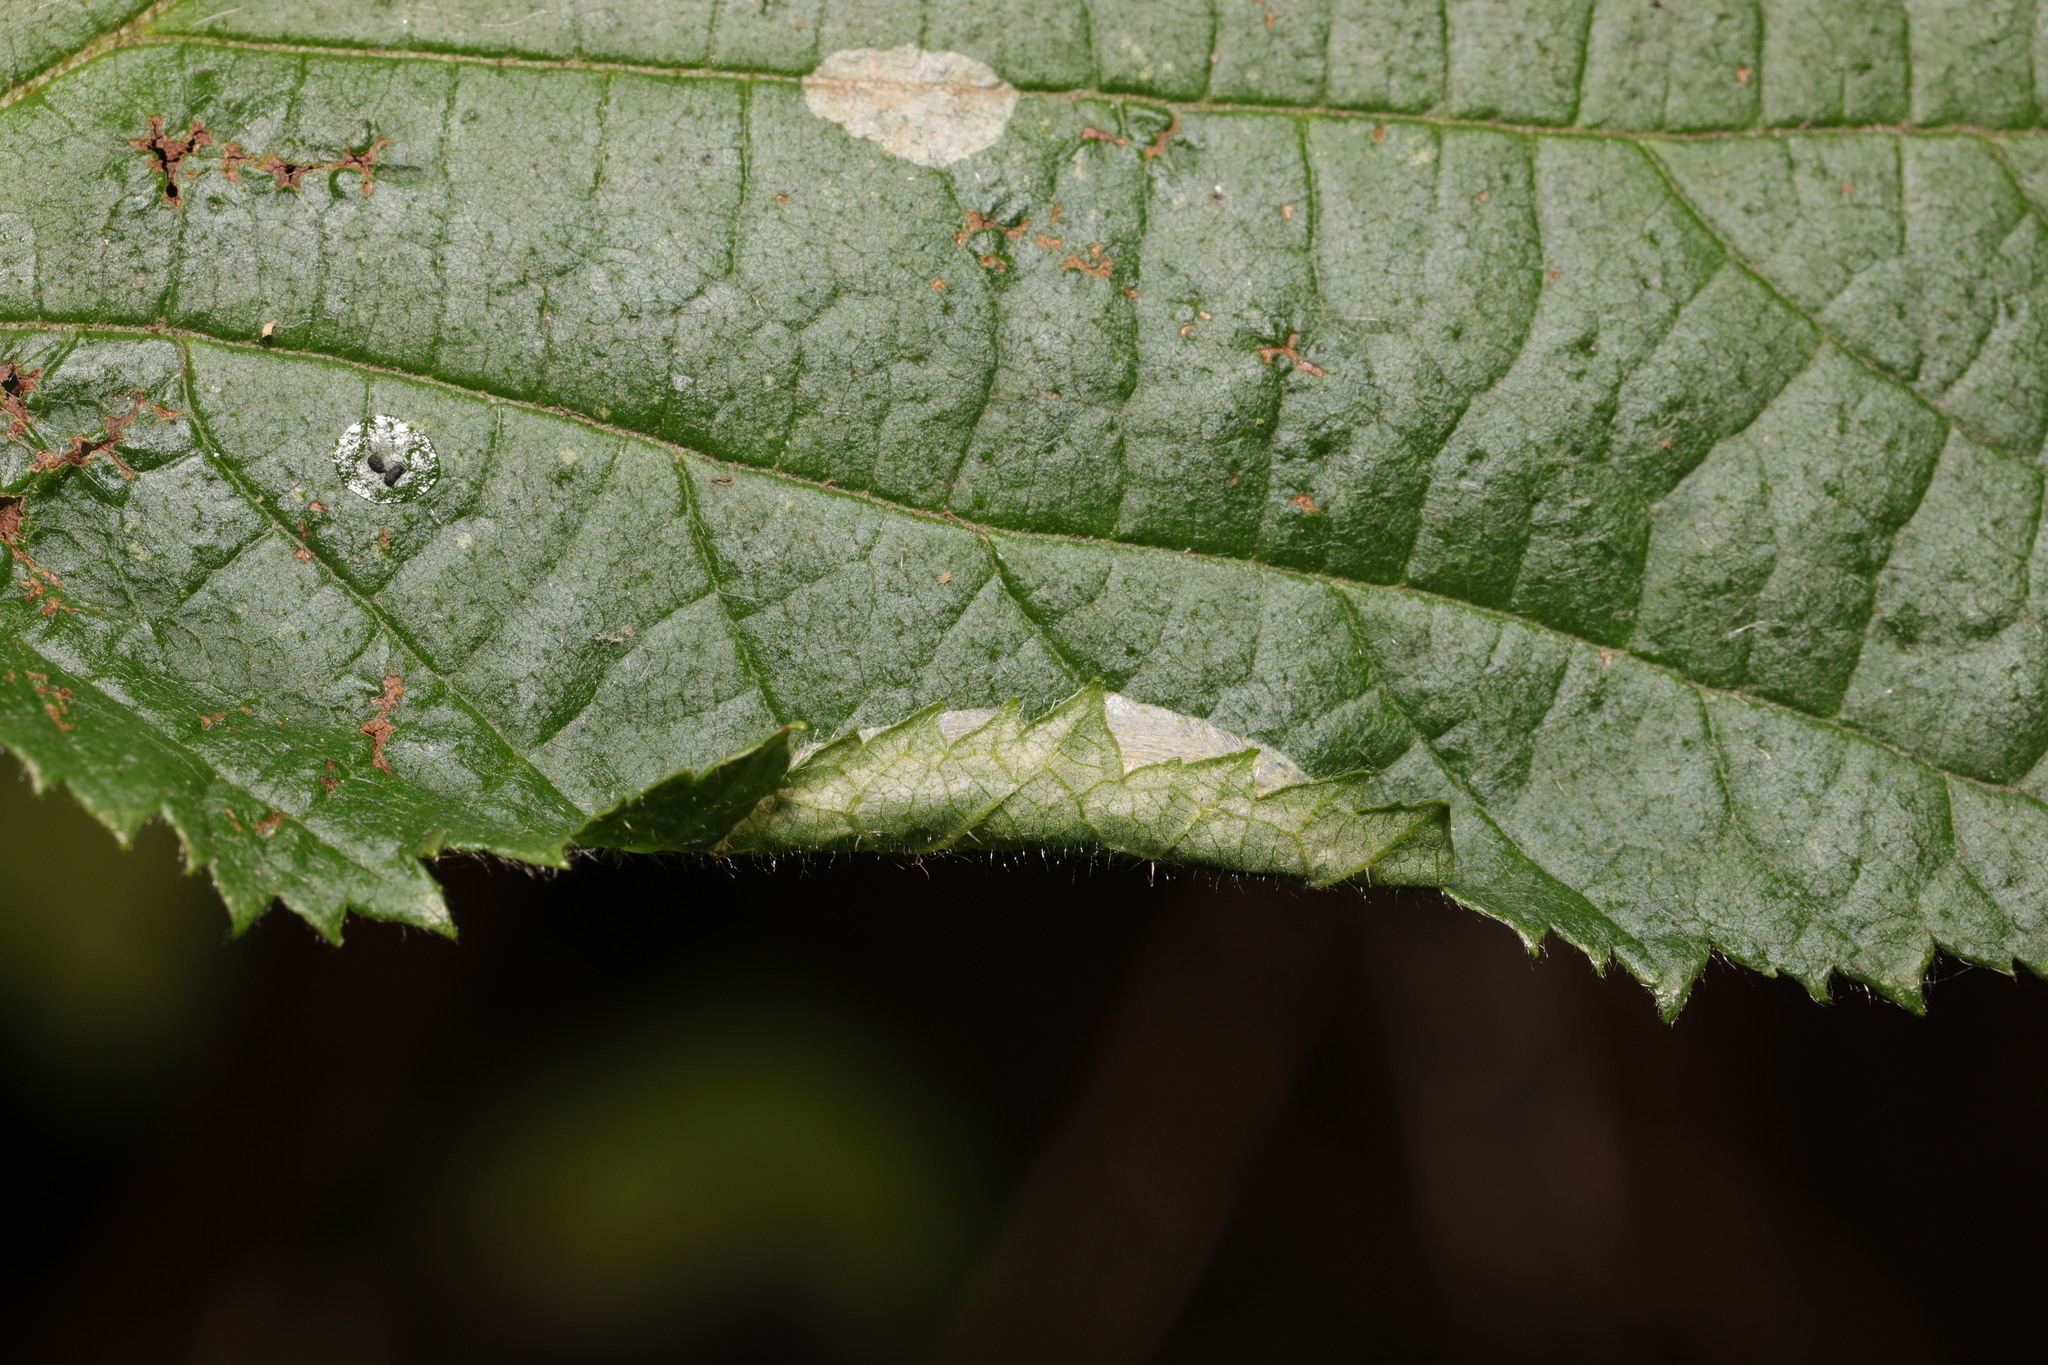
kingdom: Animalia
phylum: Arthropoda
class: Insecta
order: Lepidoptera
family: Gracillariidae
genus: Parornix
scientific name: Parornix devoniella
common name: Hazel slender
